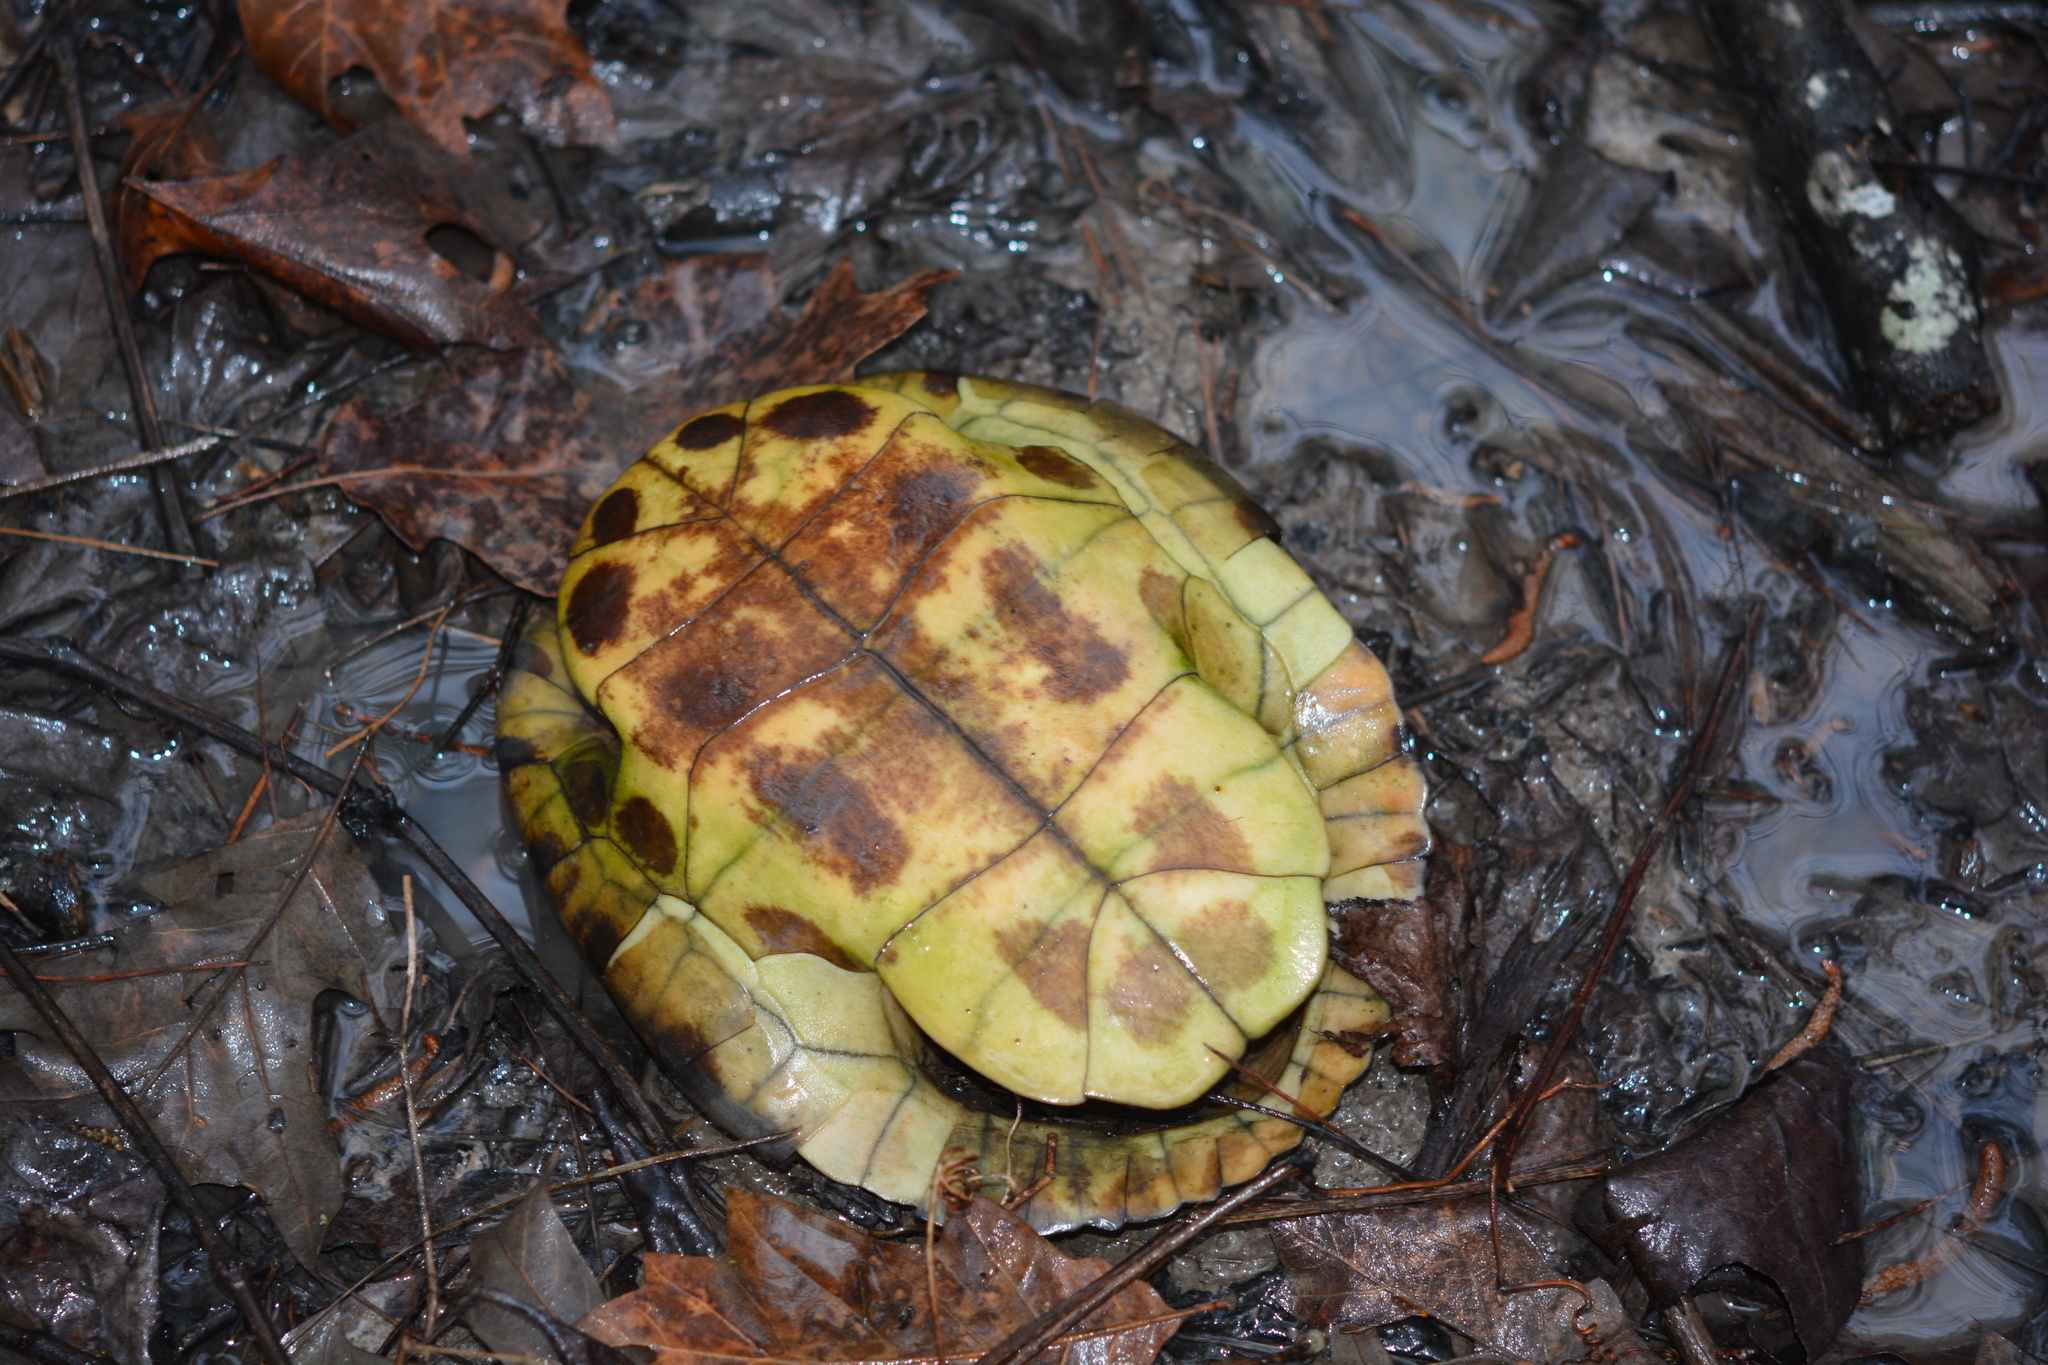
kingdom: Animalia
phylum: Chordata
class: Testudines
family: Emydidae
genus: Trachemys
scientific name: Trachemys scripta
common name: Slider
